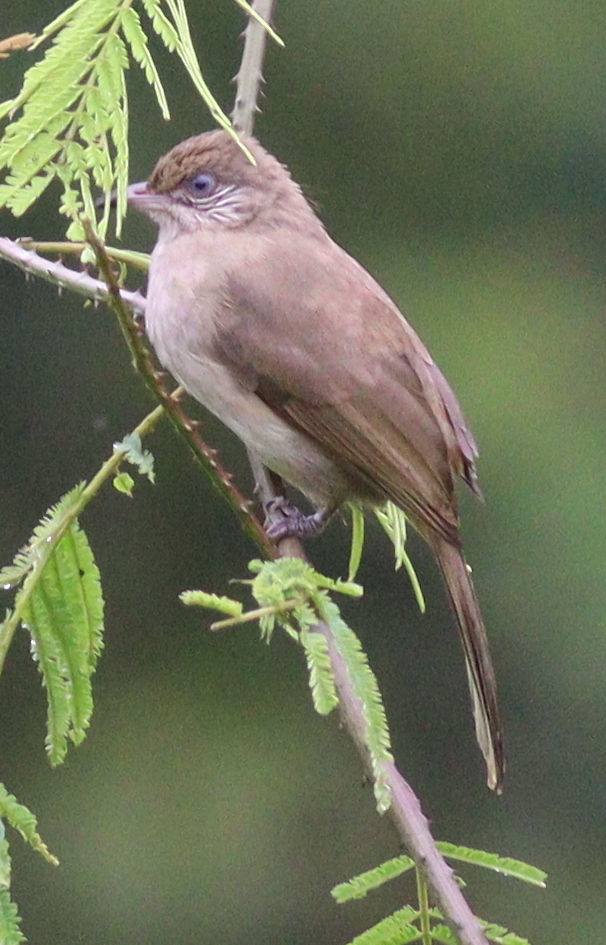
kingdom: Animalia
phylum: Chordata
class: Aves
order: Passeriformes
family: Pycnonotidae
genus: Pycnonotus
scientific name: Pycnonotus blanfordi
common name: Streak-eared bulbul
